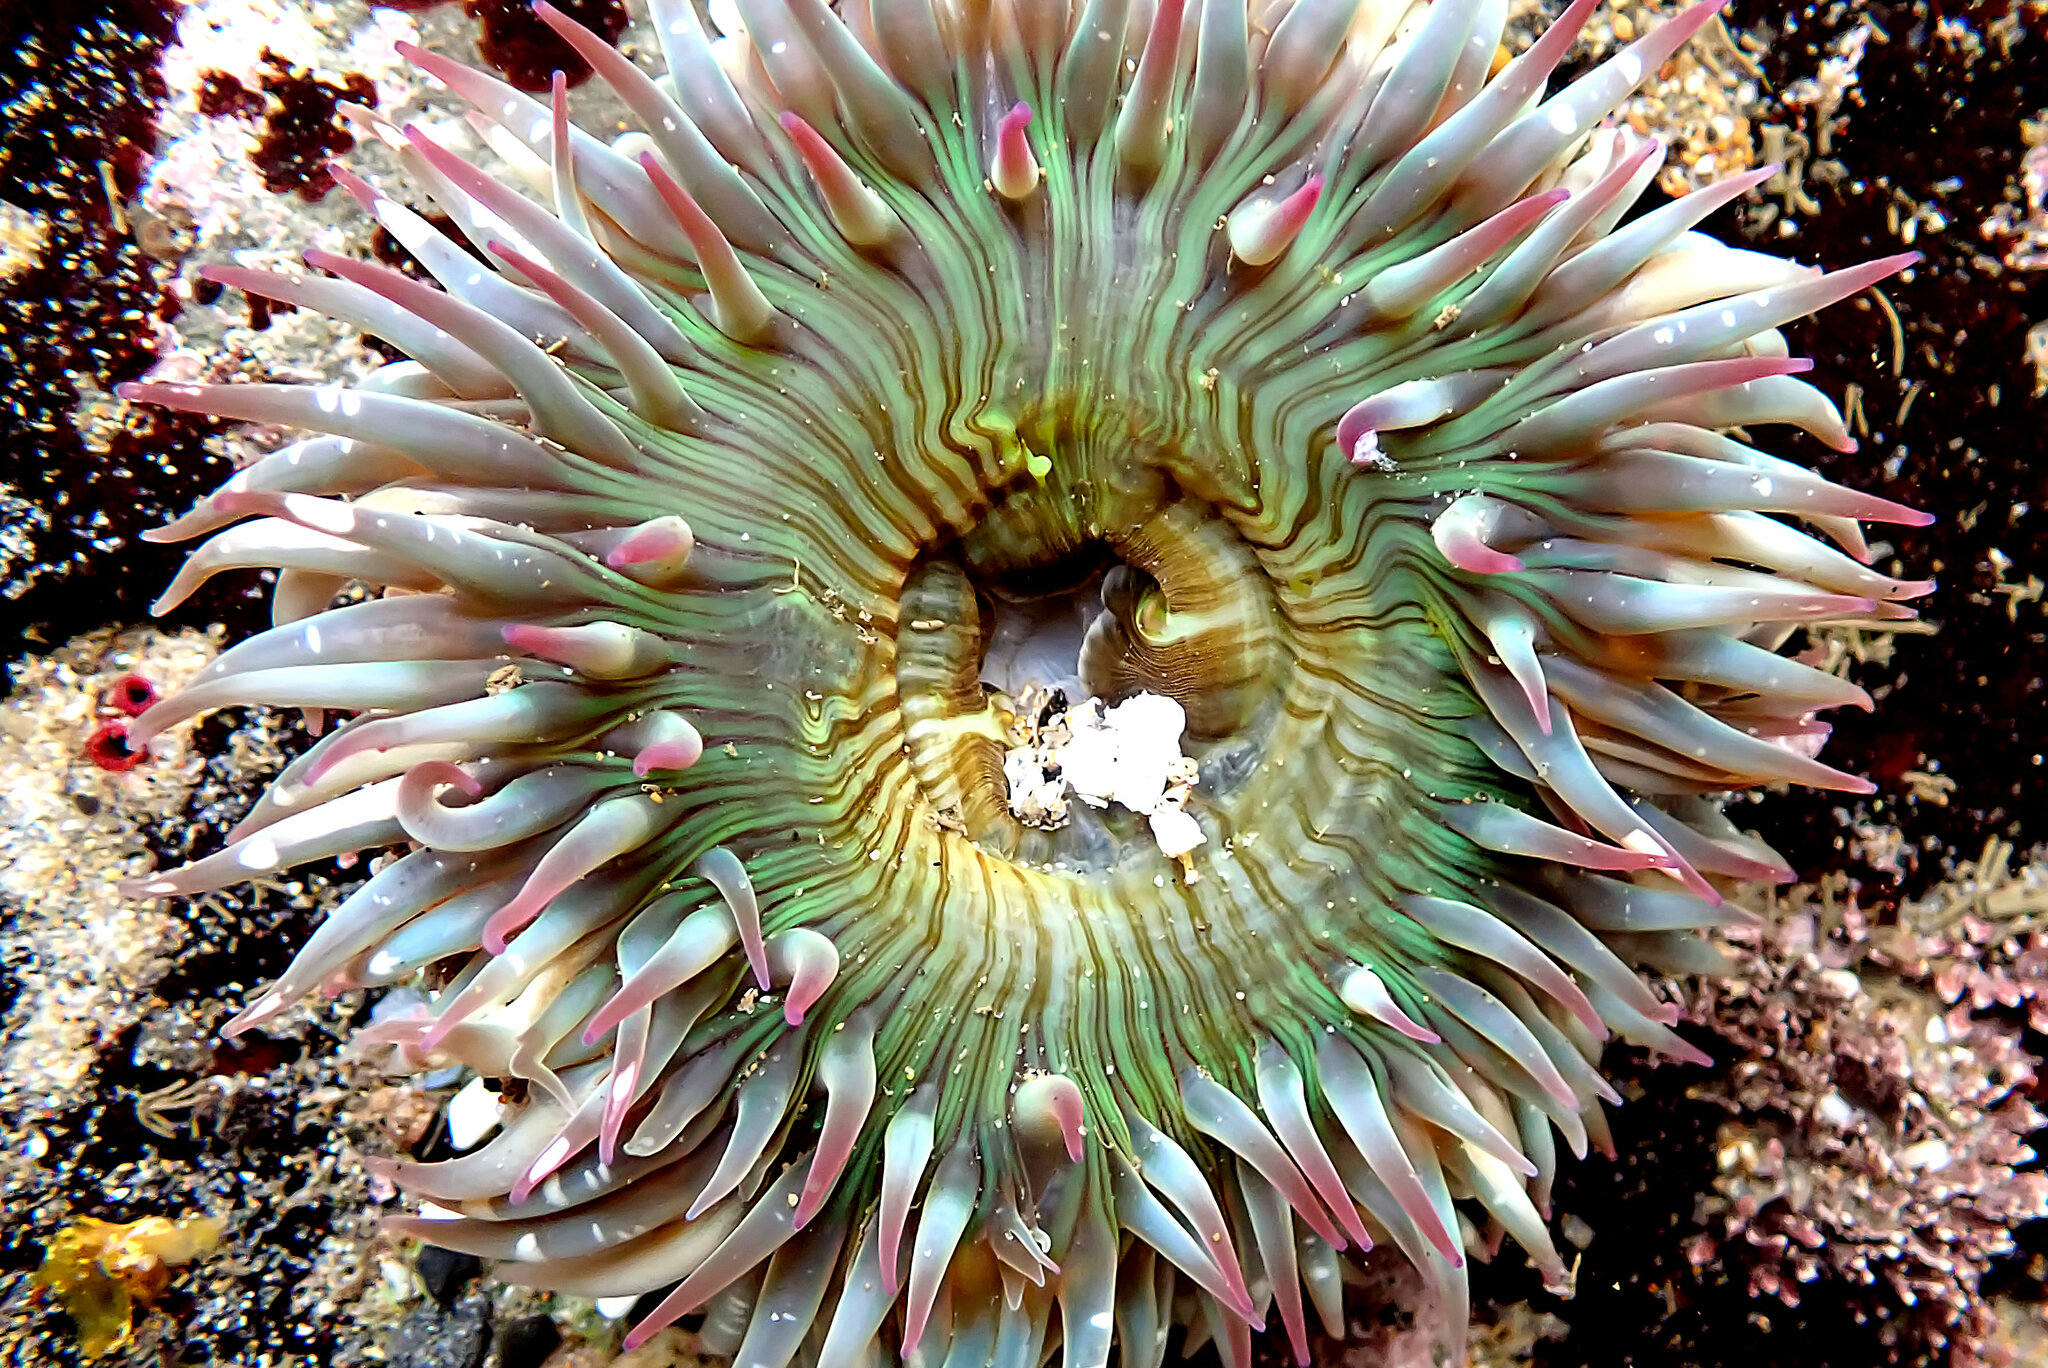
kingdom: Animalia
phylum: Cnidaria
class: Anthozoa
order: Actiniaria
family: Actiniidae
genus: Anthopleura
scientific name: Anthopleura sola
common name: Sun anemone
